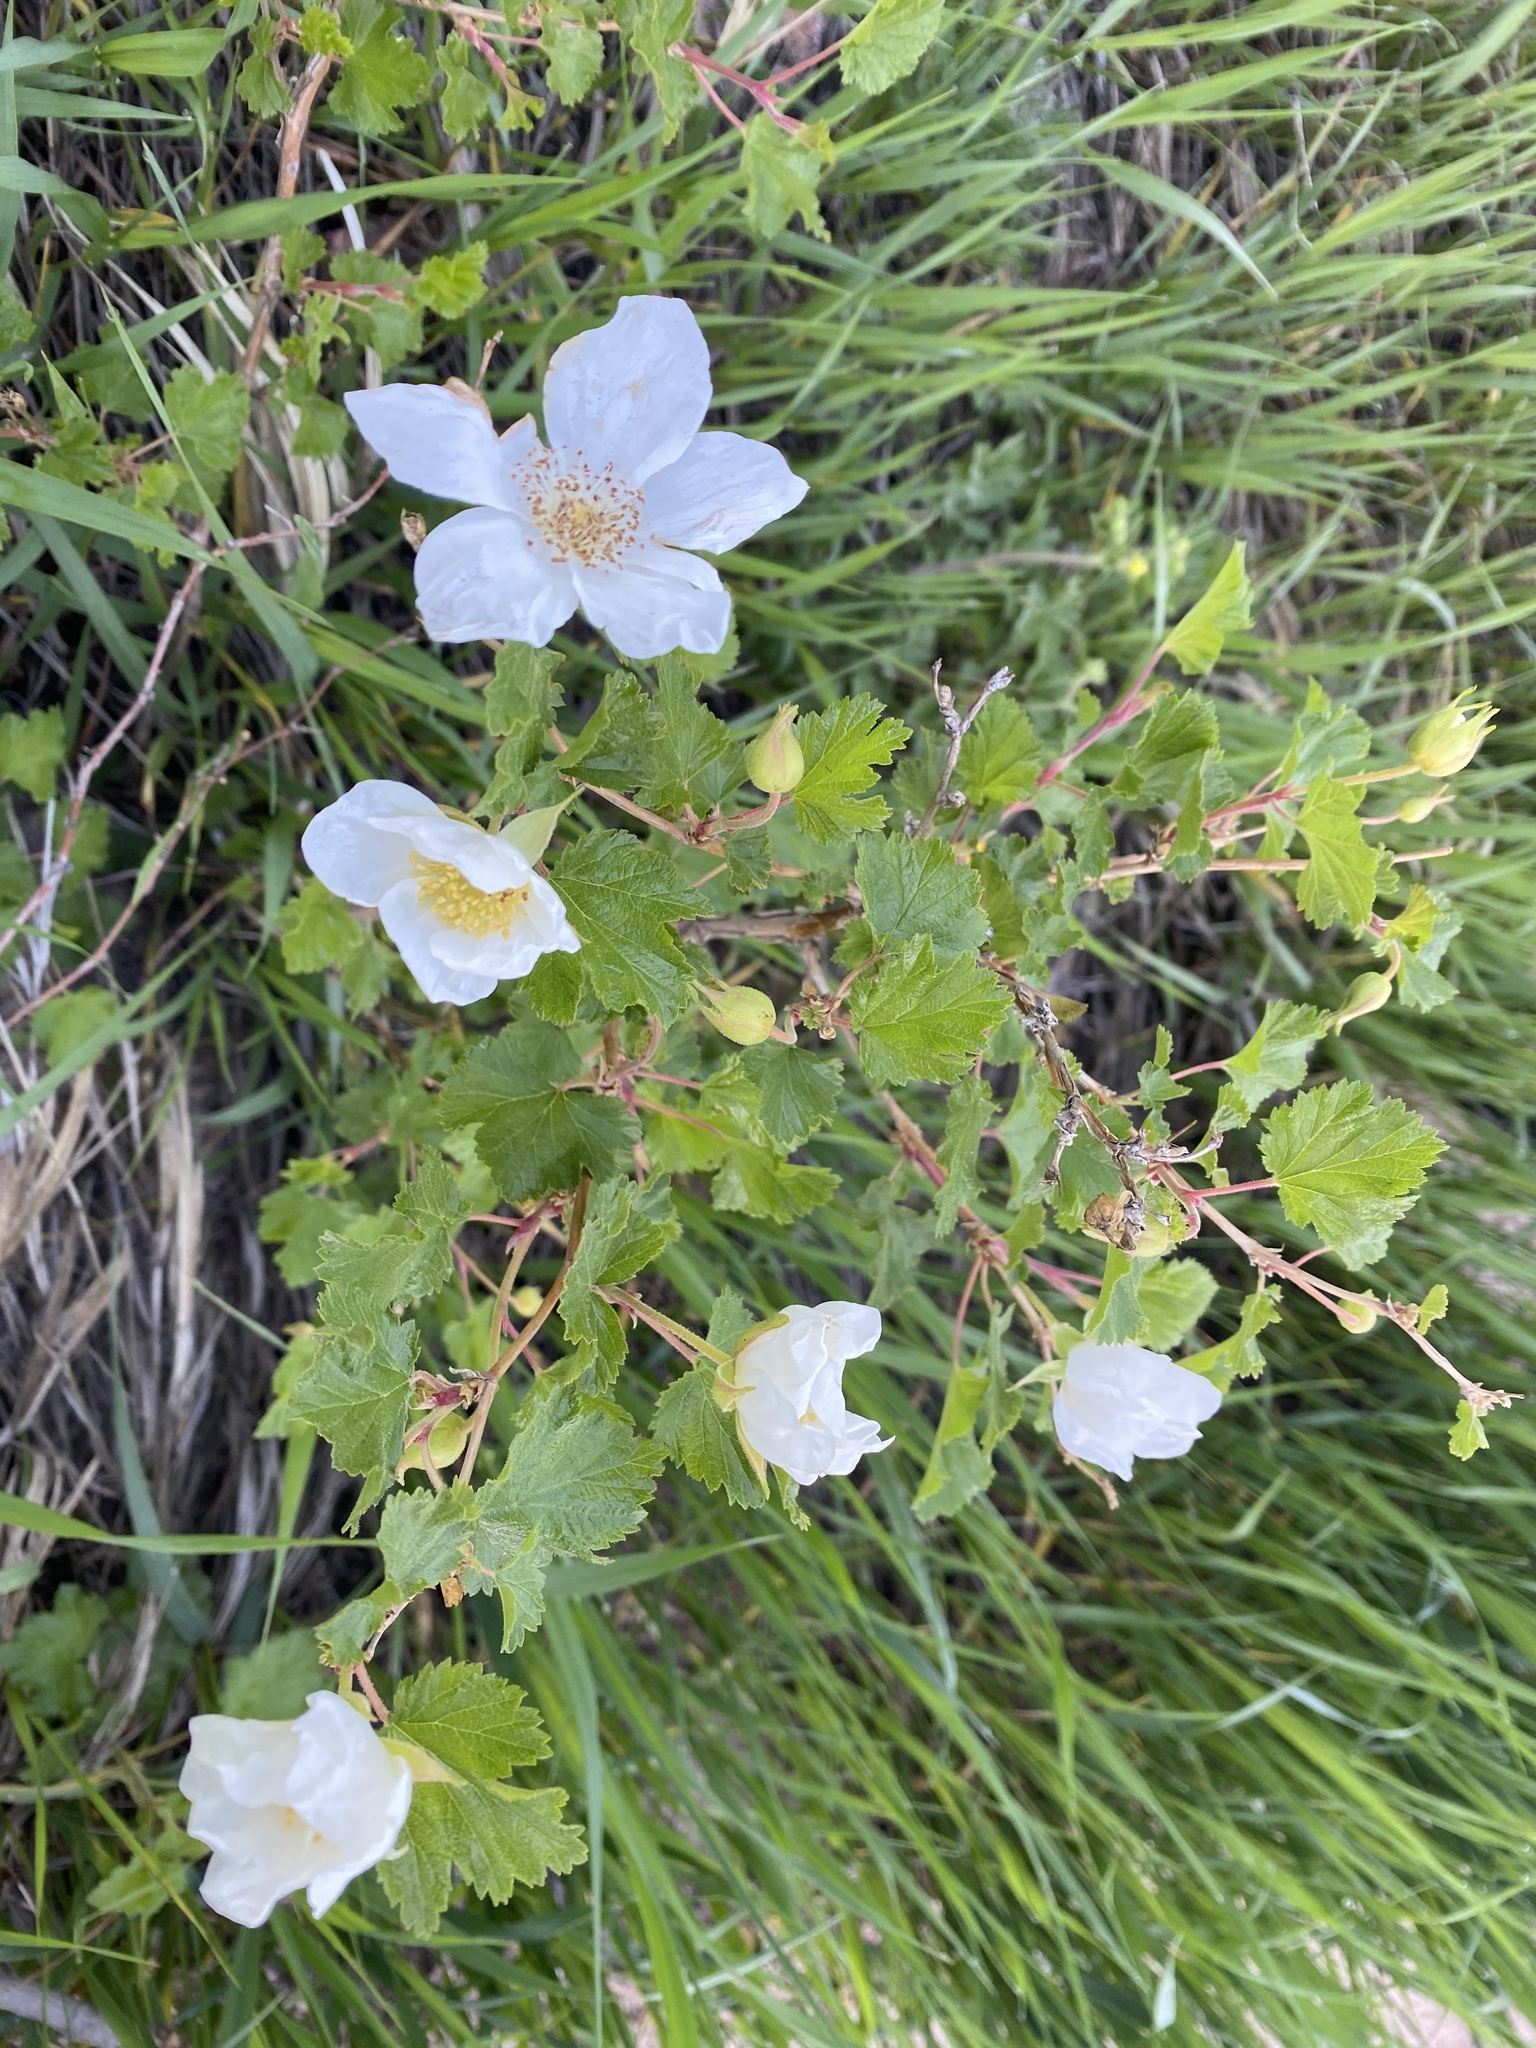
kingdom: Plantae
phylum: Tracheophyta
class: Magnoliopsida
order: Rosales
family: Rosaceae
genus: Rubus
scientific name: Rubus deliciosus
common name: Rocky mountain raspberry
